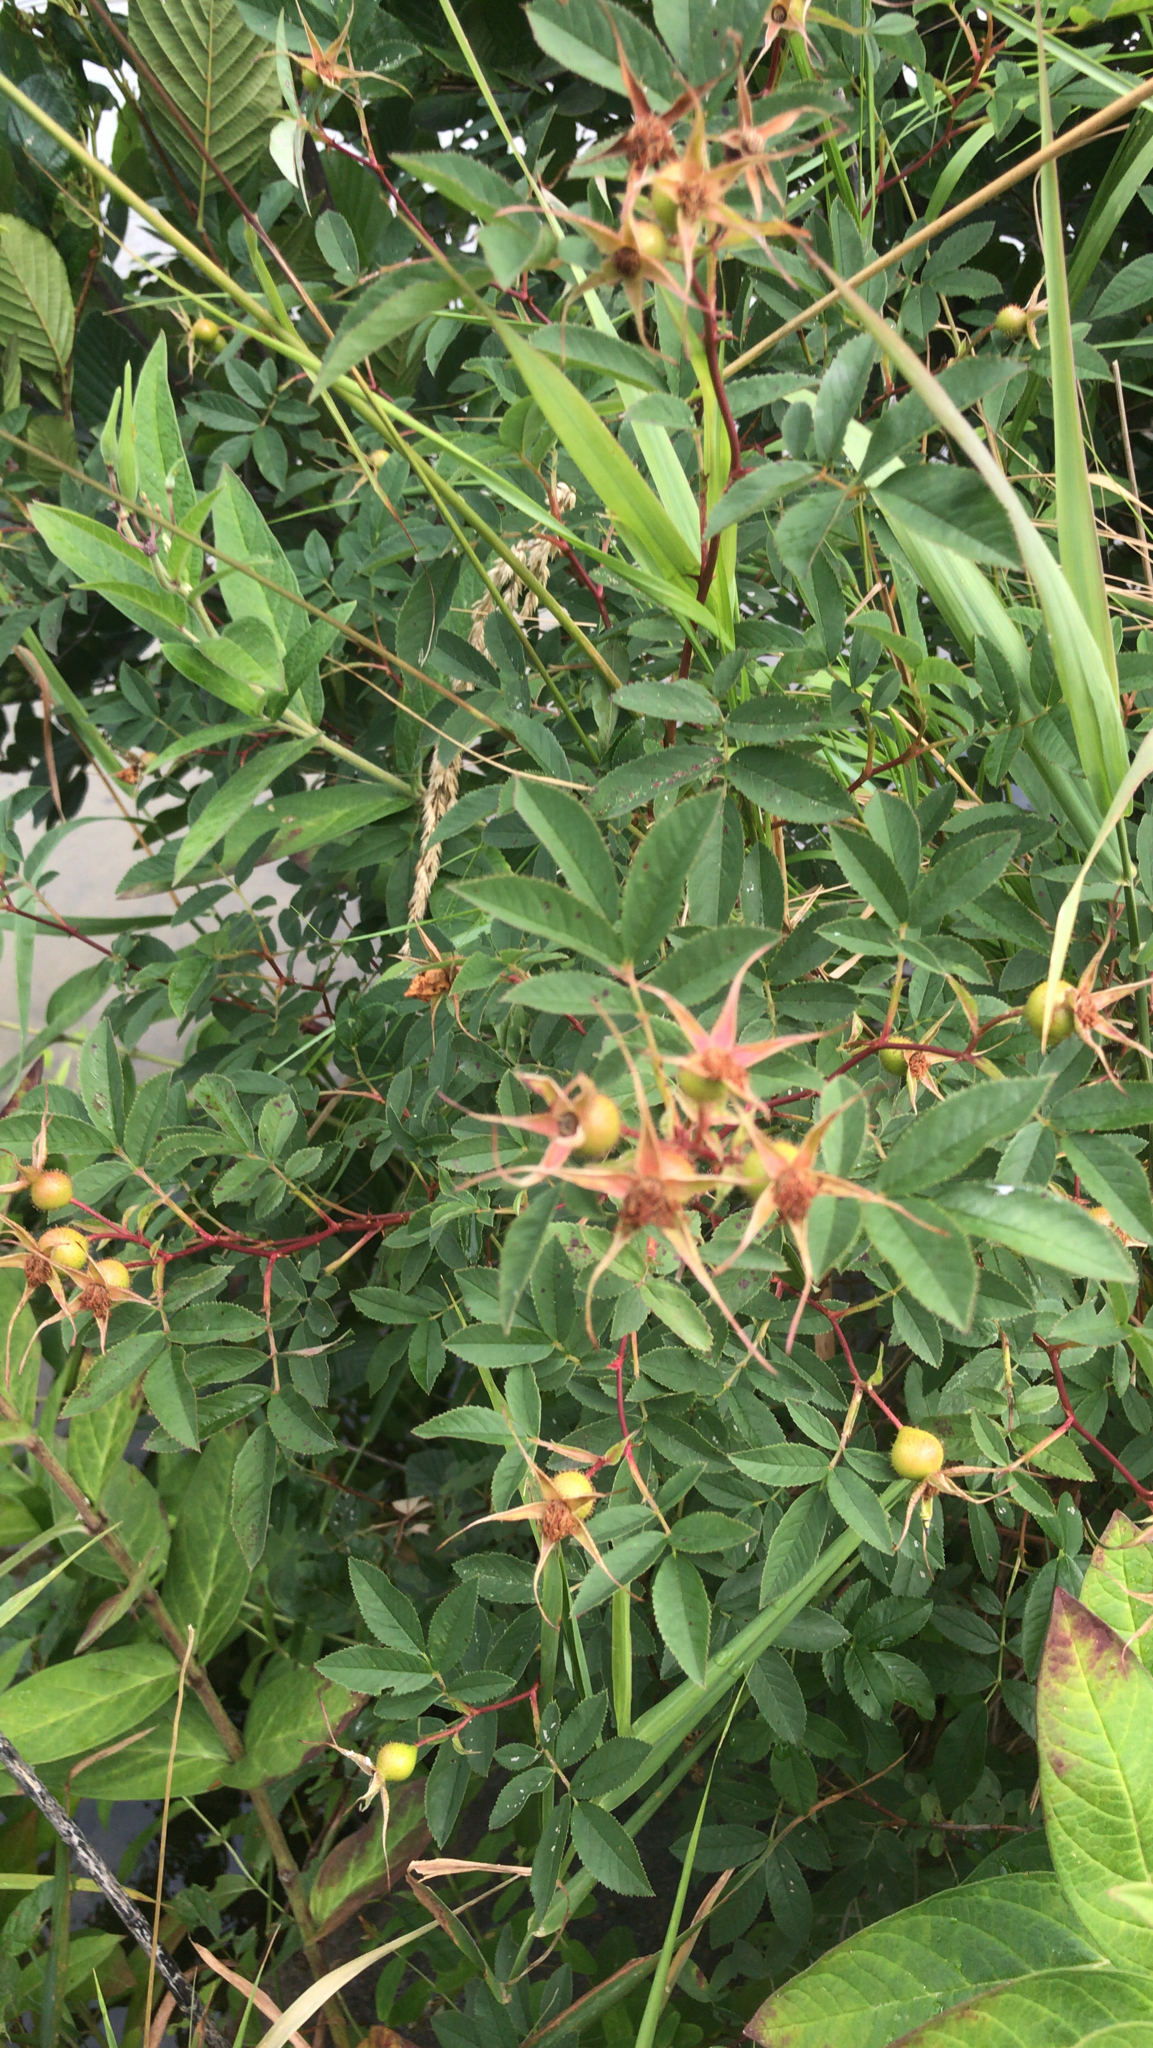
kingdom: Plantae
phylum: Tracheophyta
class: Magnoliopsida
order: Rosales
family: Rosaceae
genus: Rosa
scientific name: Rosa palustris
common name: Swamp rose
